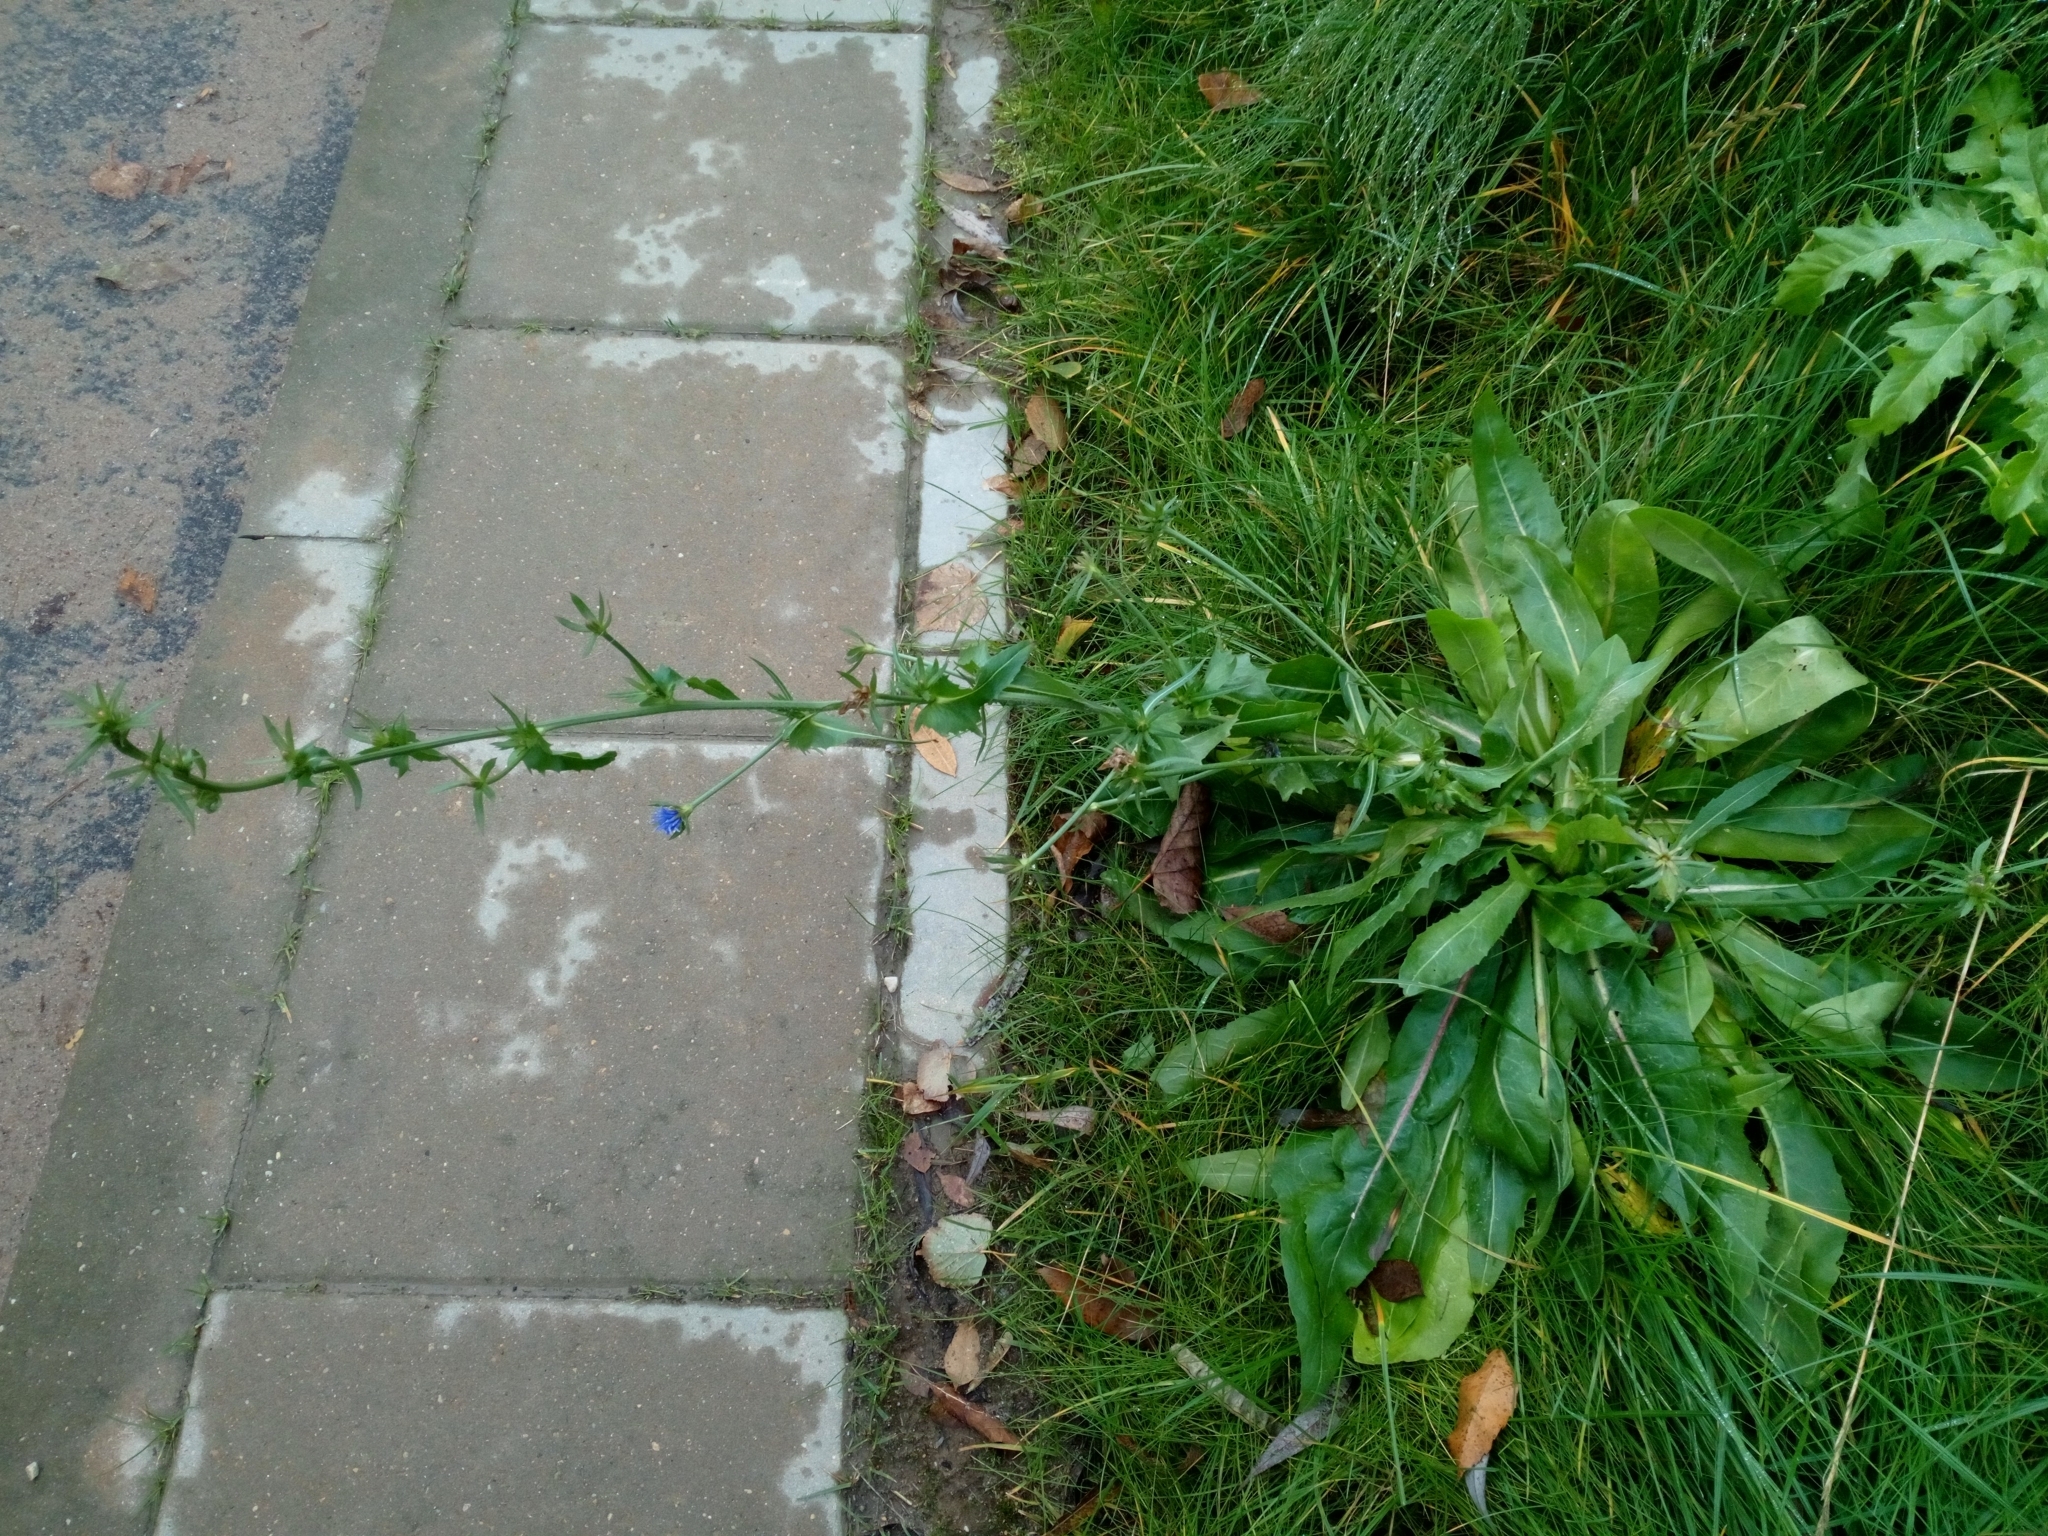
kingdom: Plantae
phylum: Tracheophyta
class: Magnoliopsida
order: Asterales
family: Asteraceae
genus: Cichorium
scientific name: Cichorium intybus
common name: Chicory
